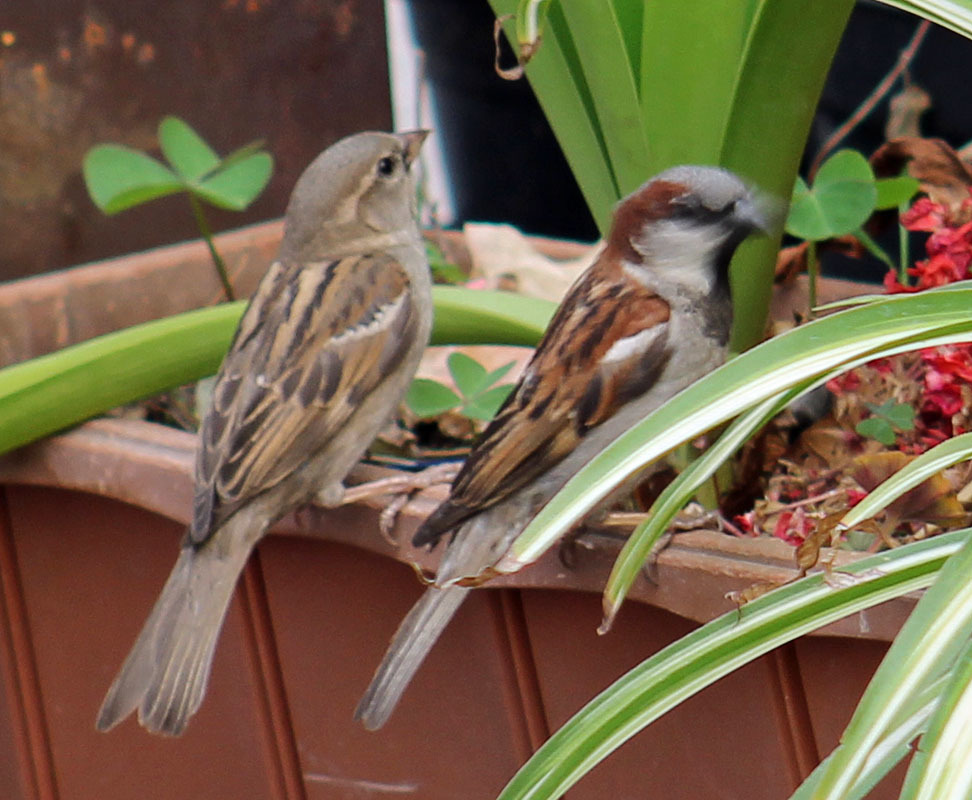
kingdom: Animalia
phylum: Chordata
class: Aves
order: Passeriformes
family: Passeridae
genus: Passer
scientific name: Passer domesticus
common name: House sparrow
